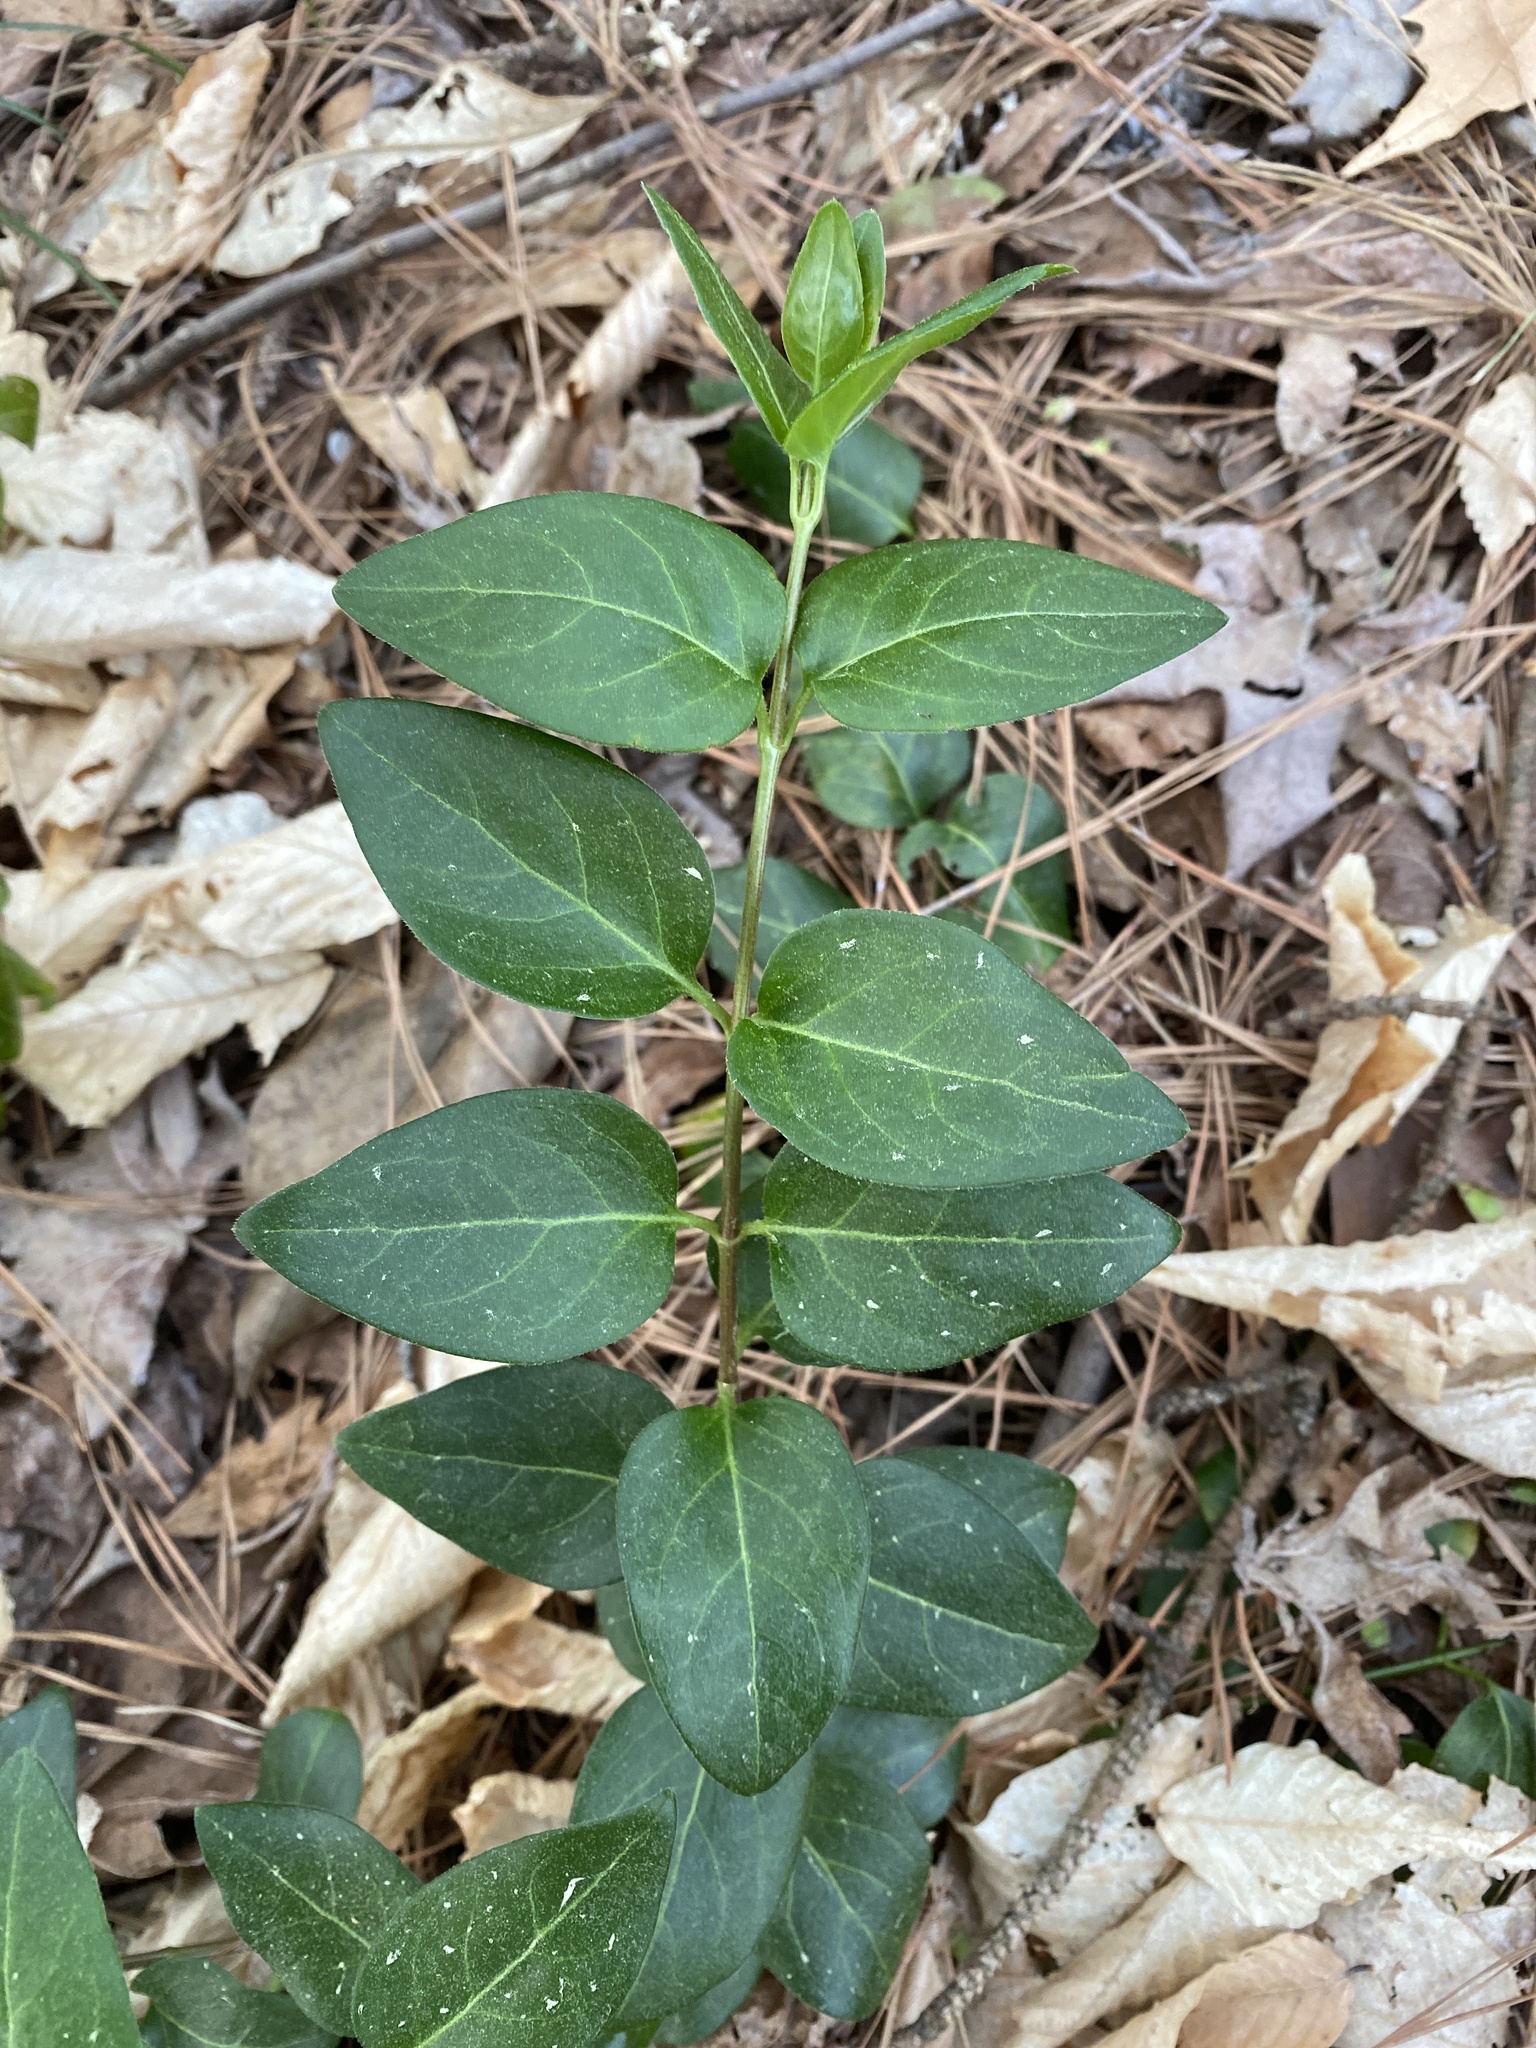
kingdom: Plantae
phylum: Tracheophyta
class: Magnoliopsida
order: Gentianales
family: Apocynaceae
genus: Vinca
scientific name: Vinca major
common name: Greater periwinkle
